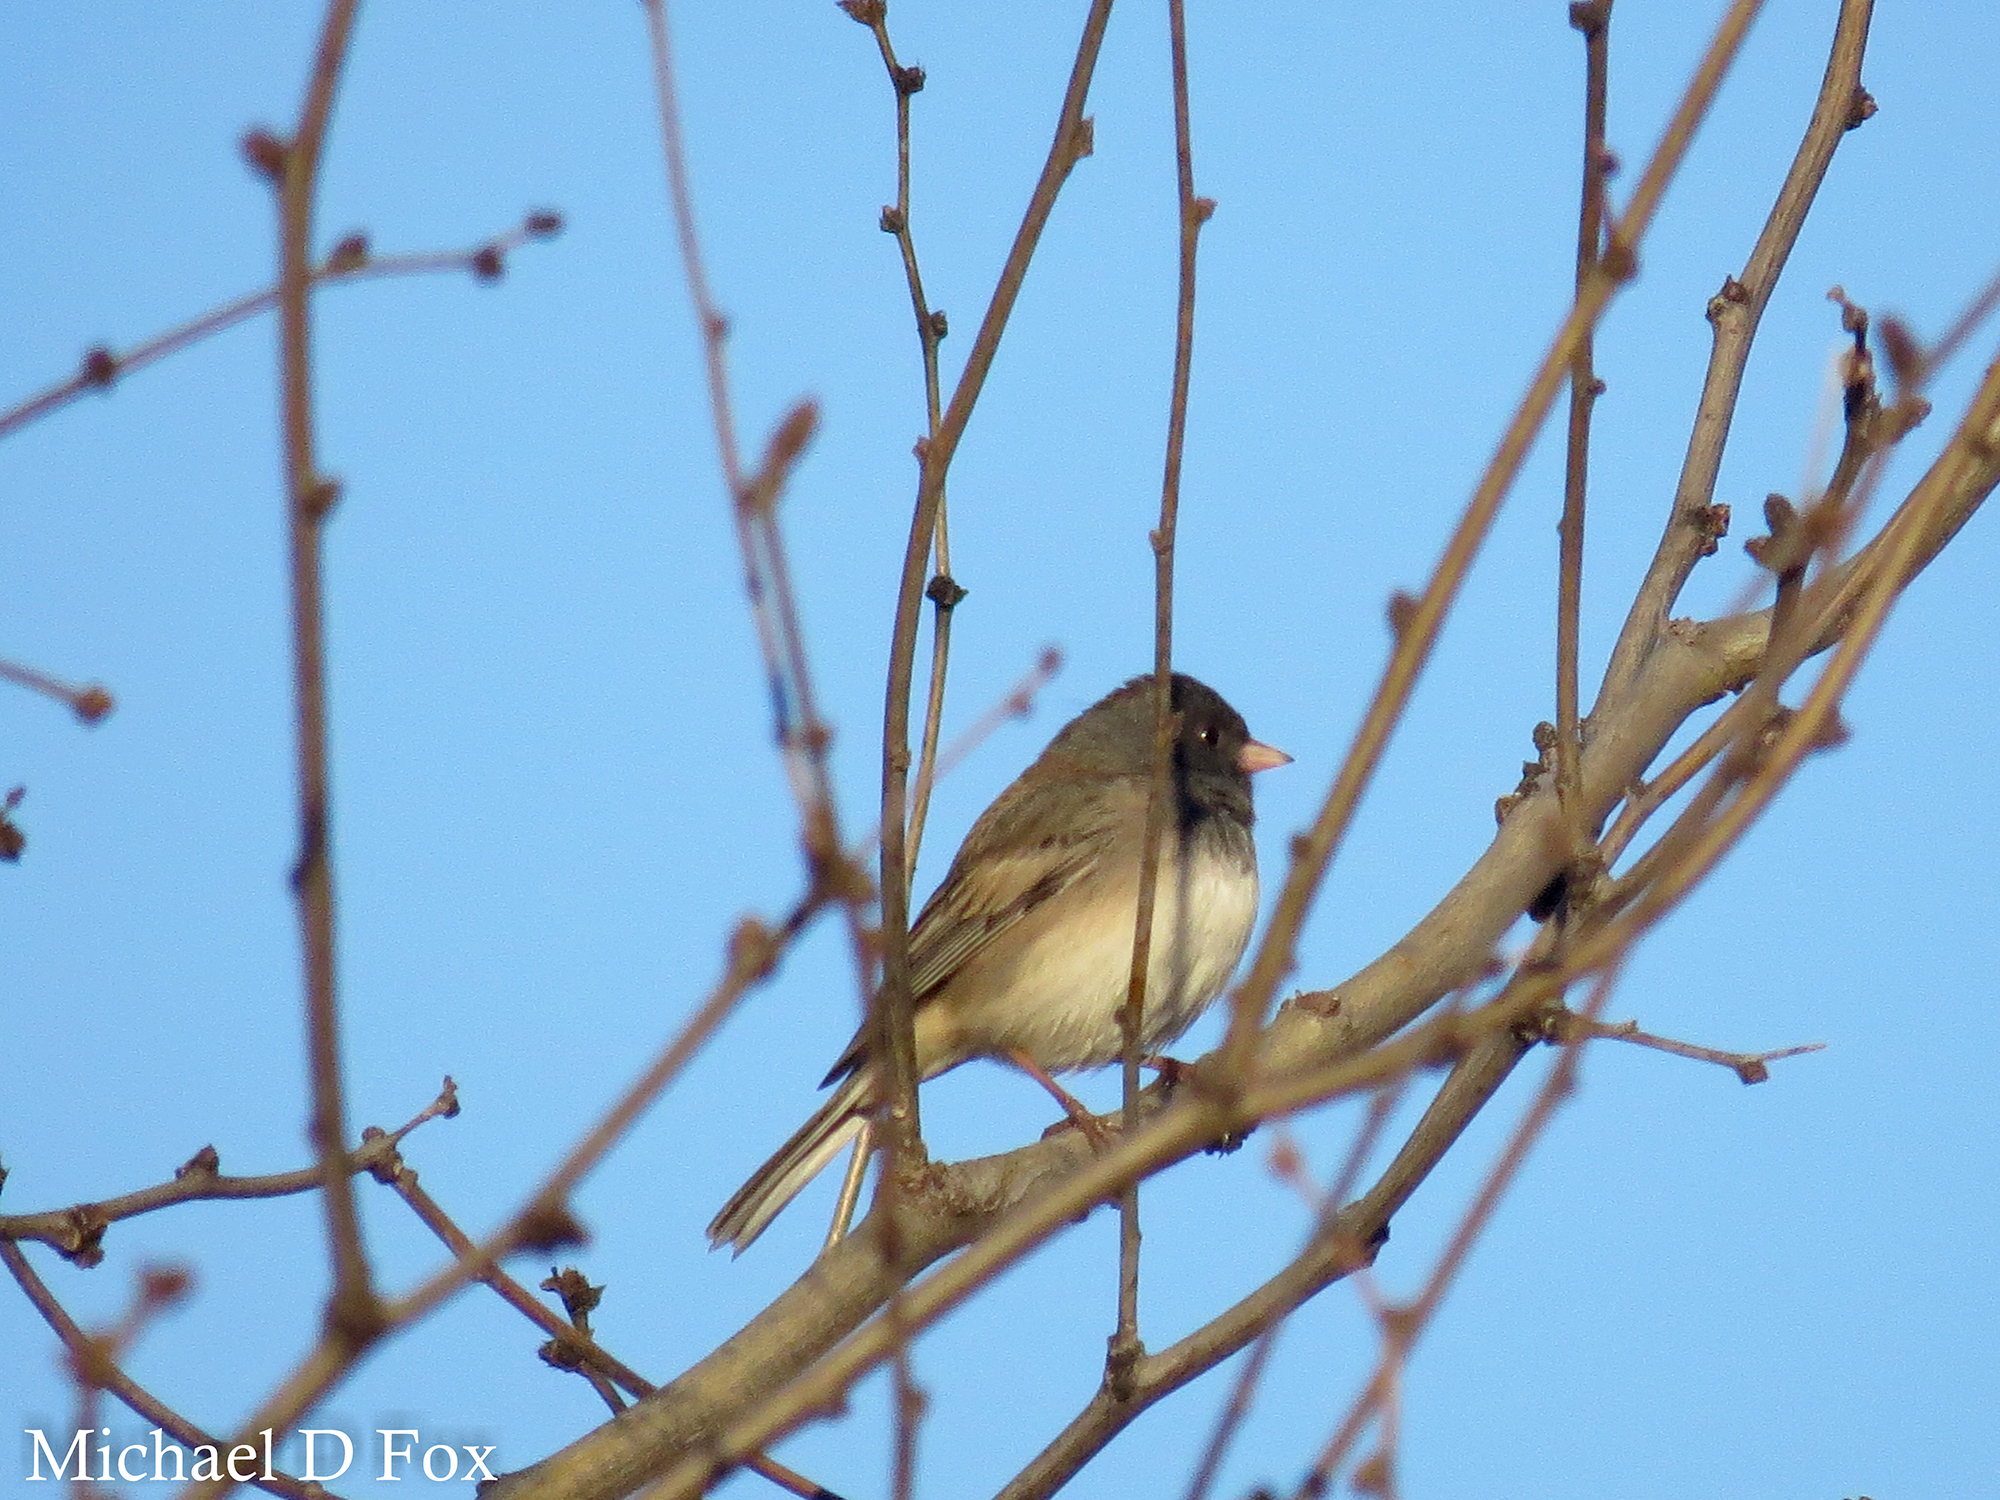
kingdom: Animalia
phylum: Chordata
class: Aves
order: Passeriformes
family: Passerellidae
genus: Junco
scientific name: Junco hyemalis
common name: Dark-eyed junco
